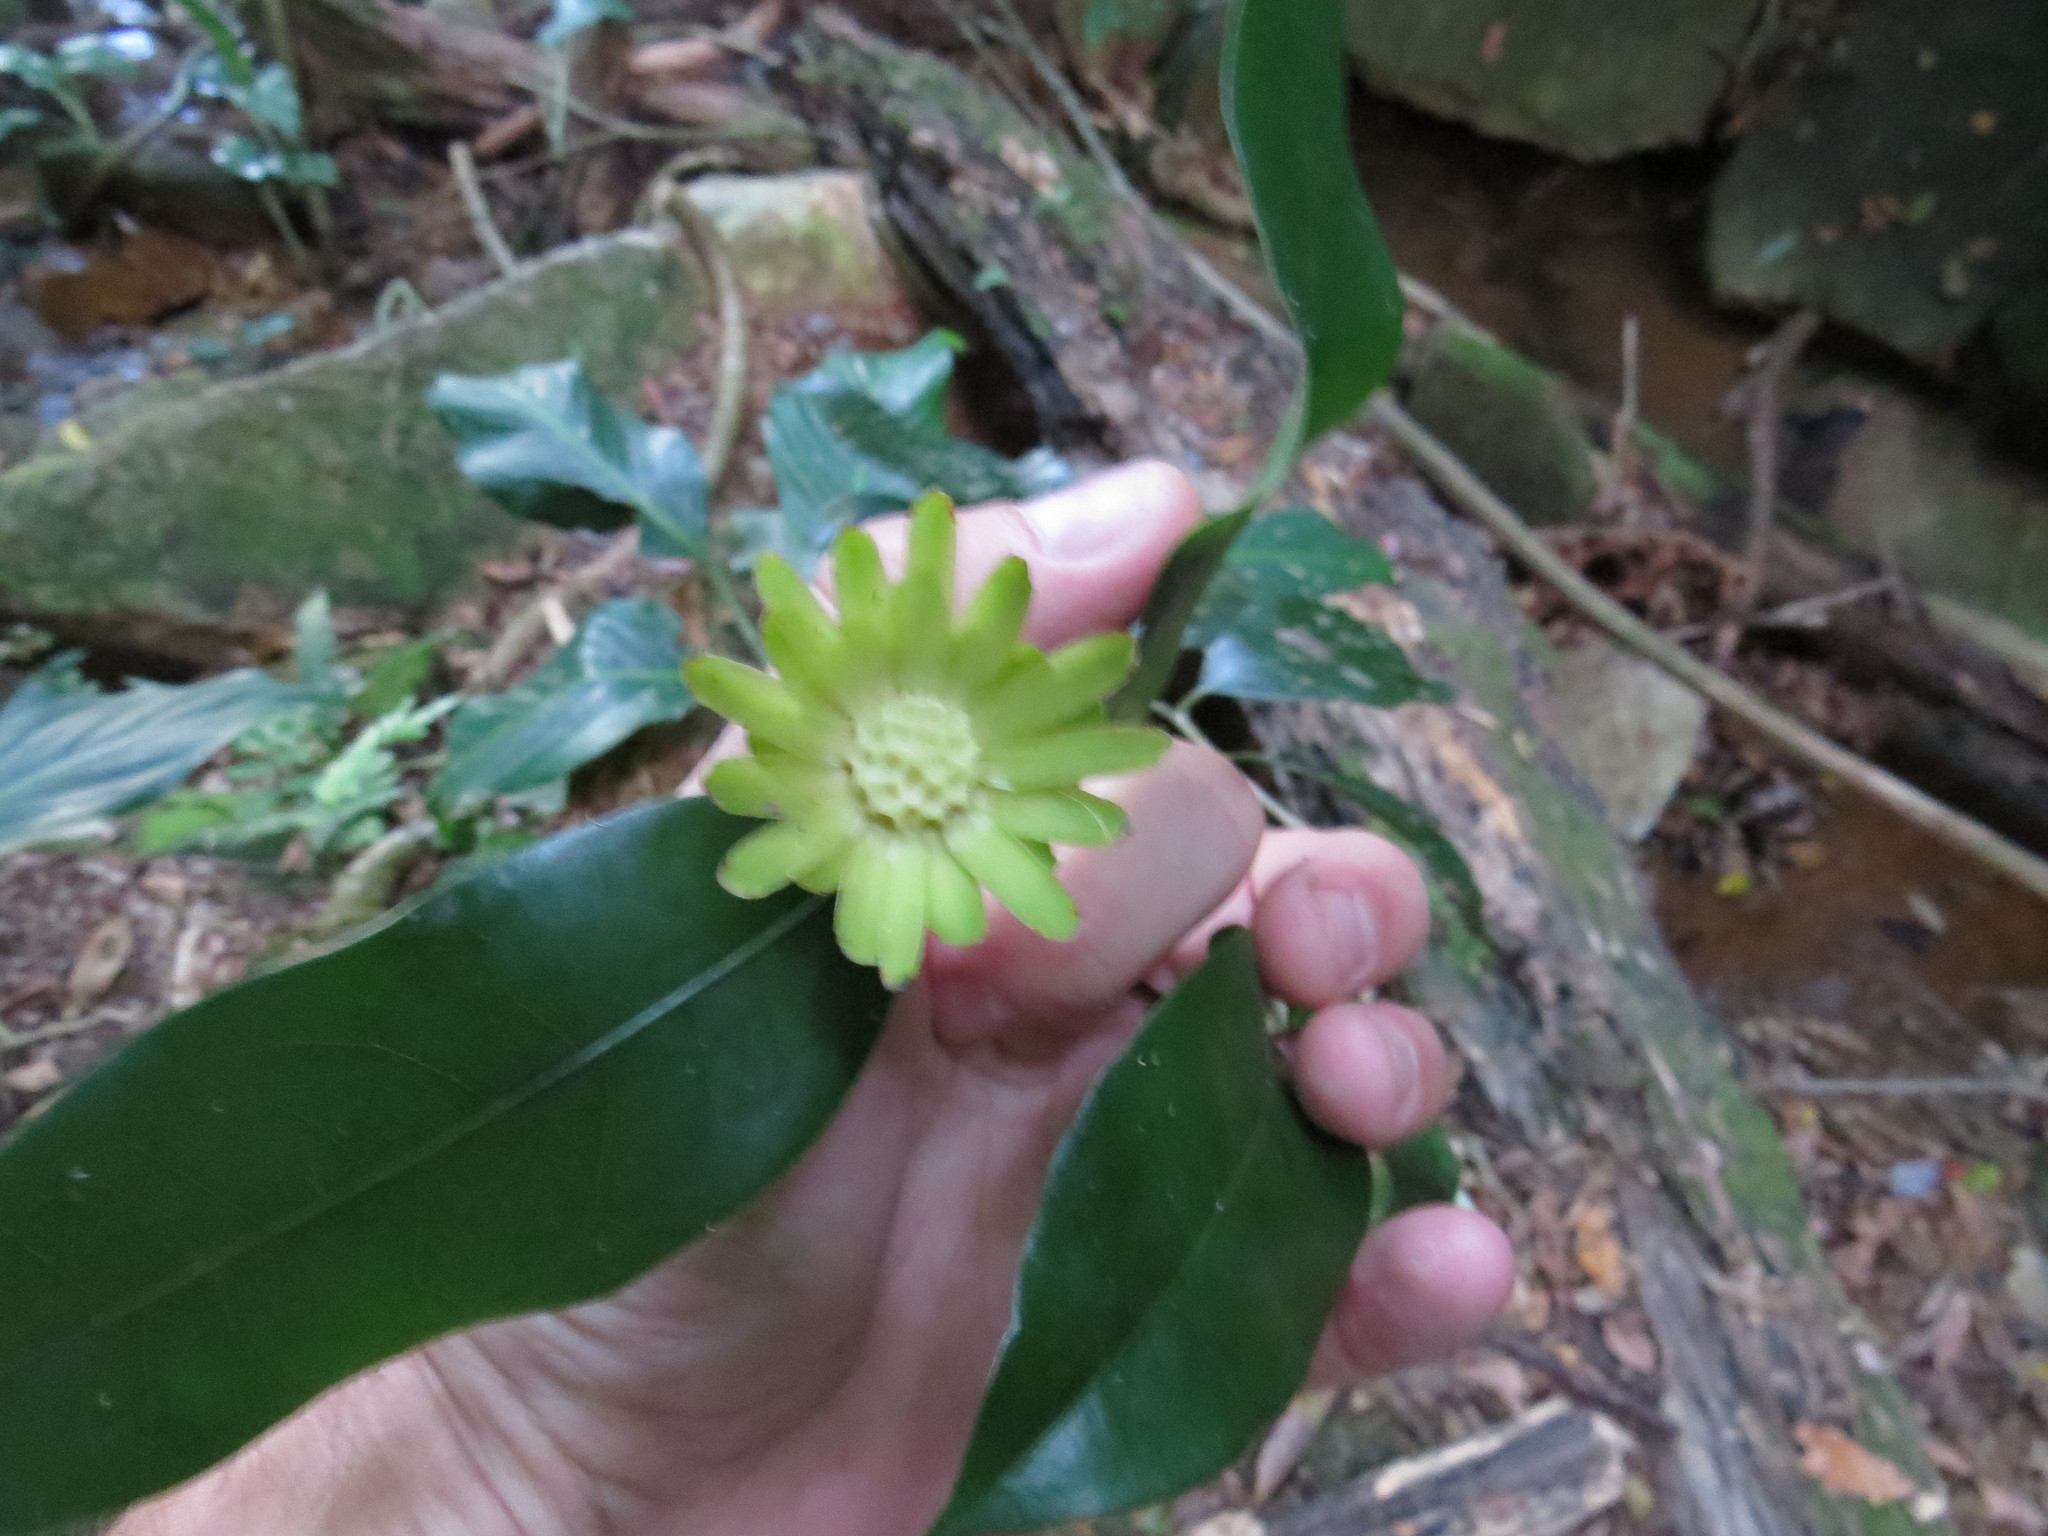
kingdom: Plantae
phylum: Tracheophyta
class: Magnoliopsida
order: Asterales
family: Asteraceae
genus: Stifftia
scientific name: Stifftia chrysantha
